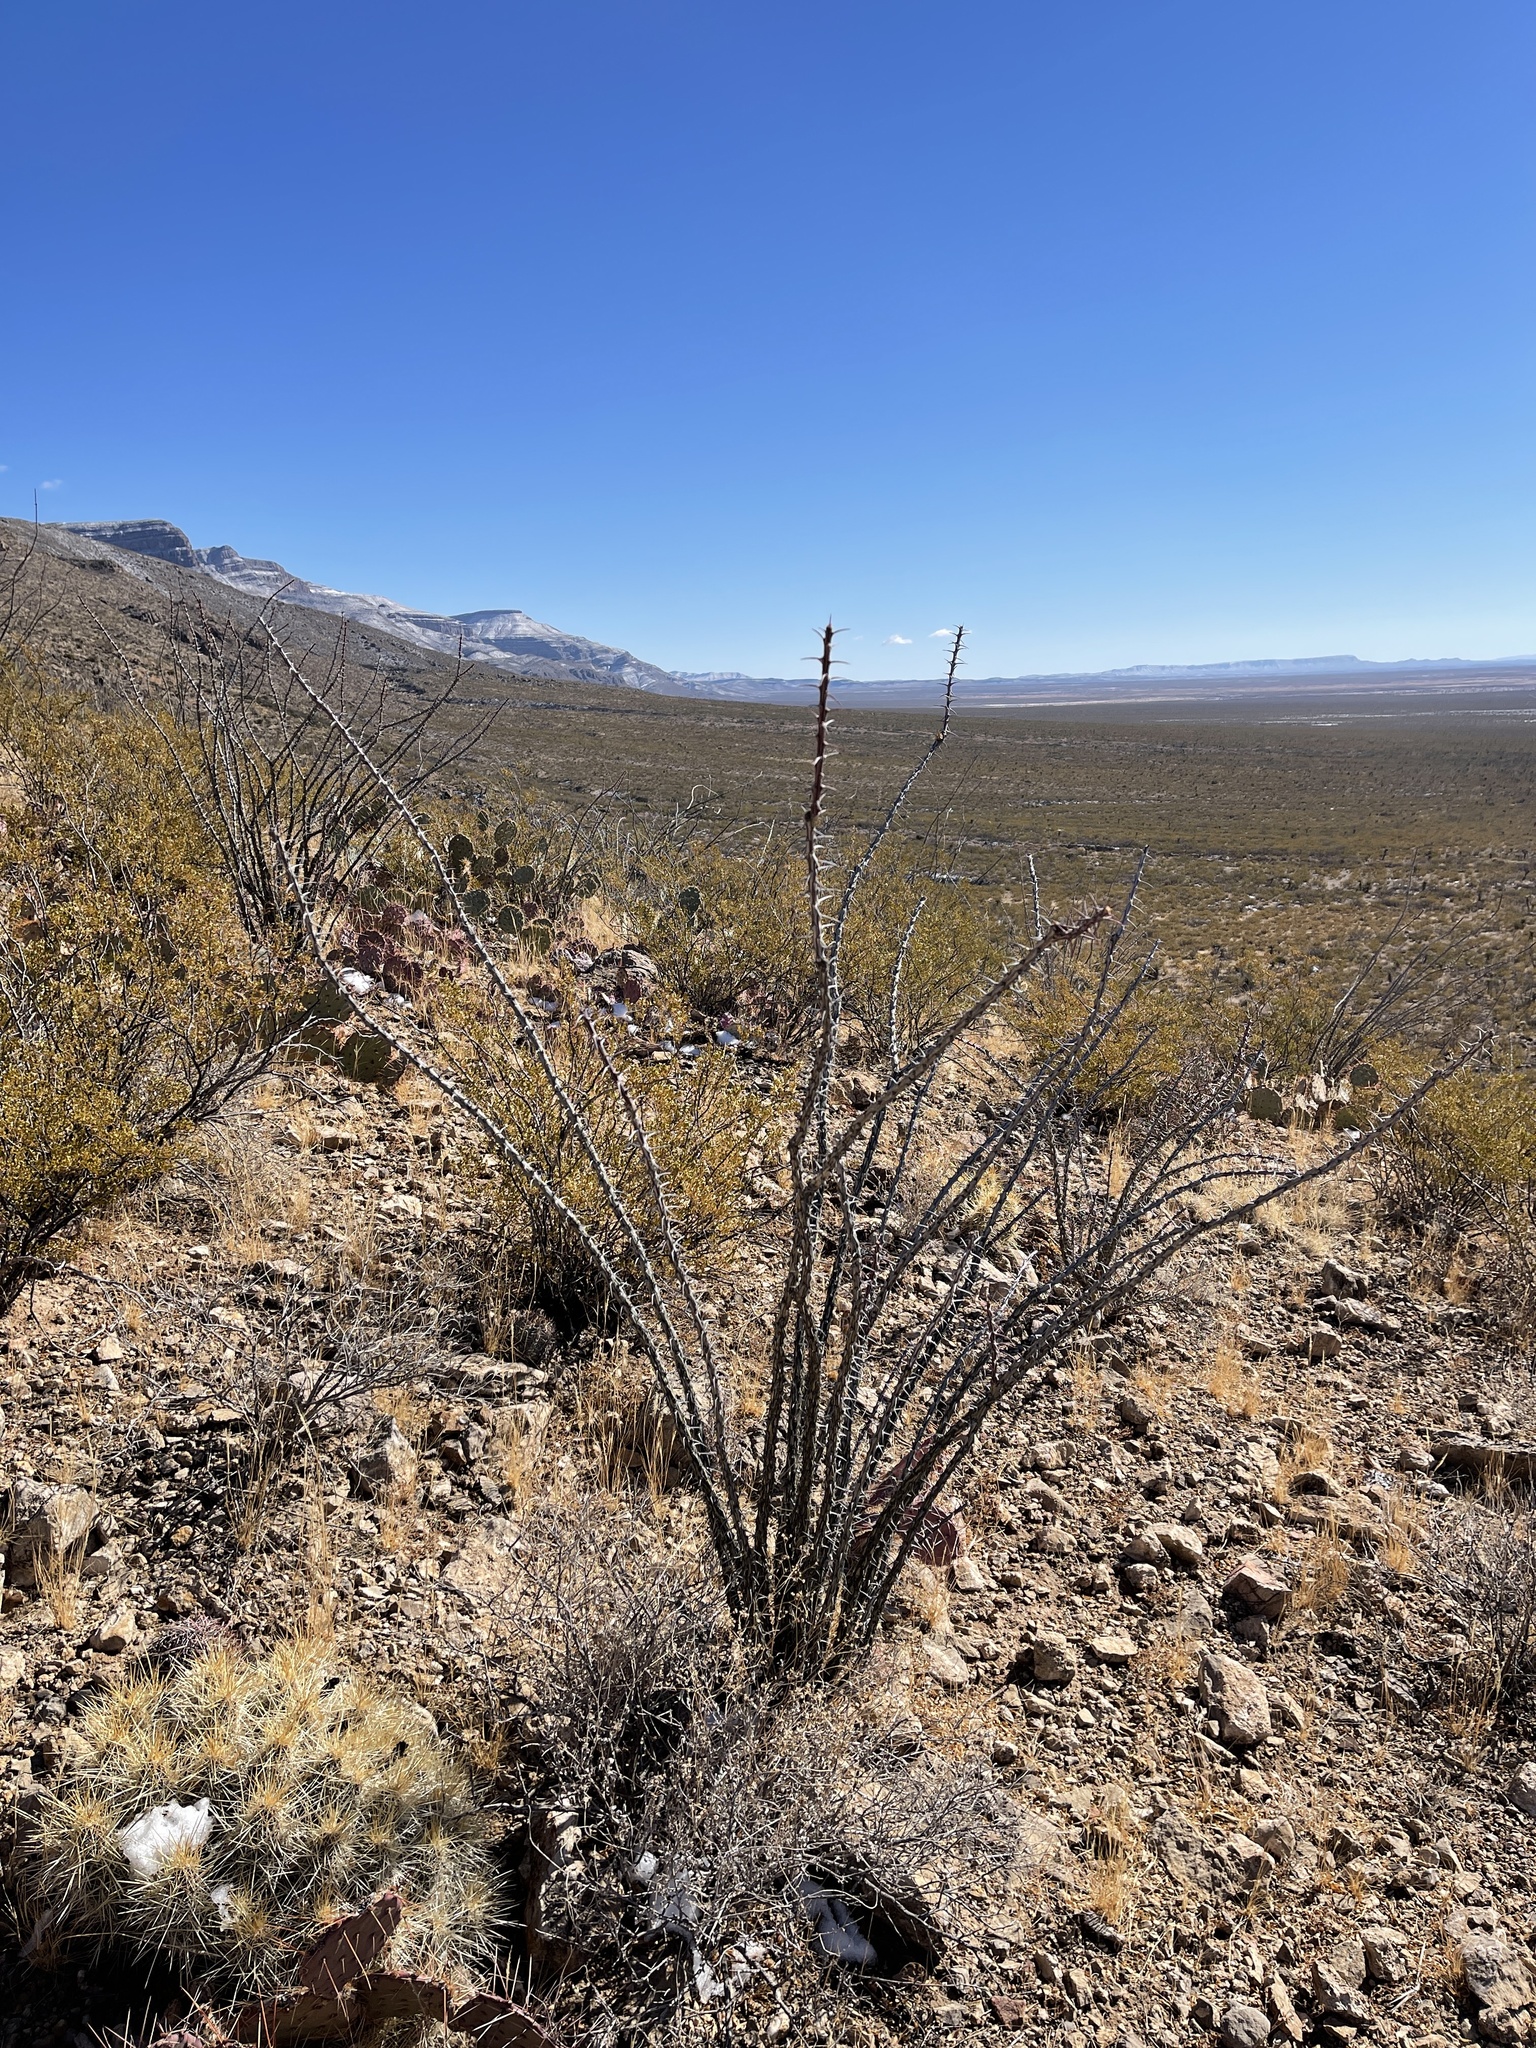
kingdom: Plantae
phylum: Tracheophyta
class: Magnoliopsida
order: Ericales
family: Fouquieriaceae
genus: Fouquieria
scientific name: Fouquieria splendens
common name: Vine-cactus
